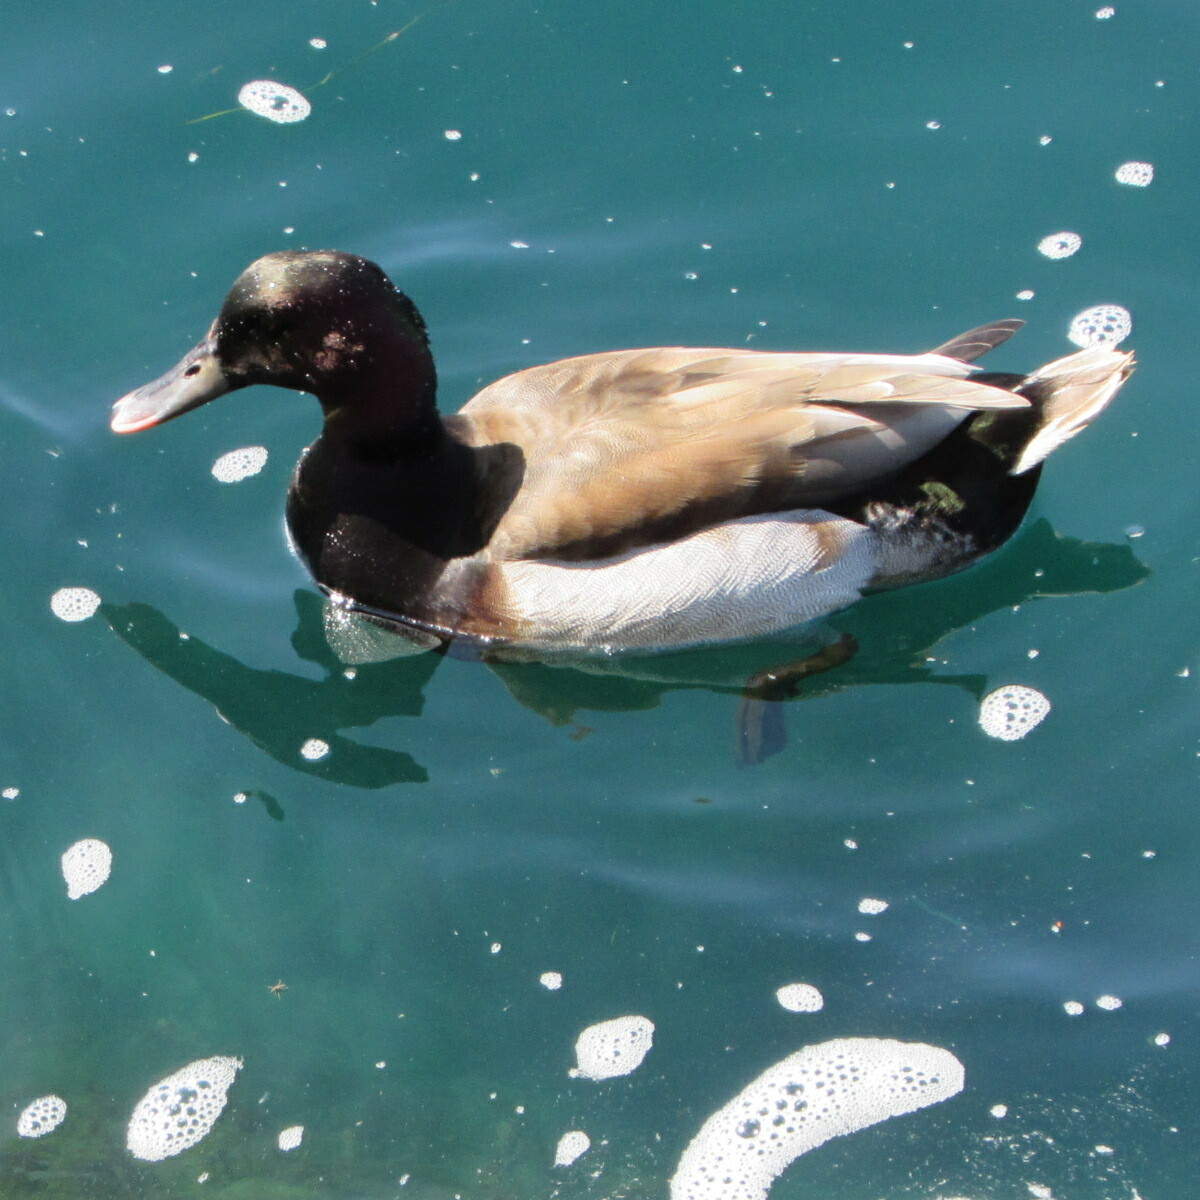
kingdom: Animalia
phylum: Chordata
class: Aves
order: Anseriformes
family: Anatidae
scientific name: Anatidae
